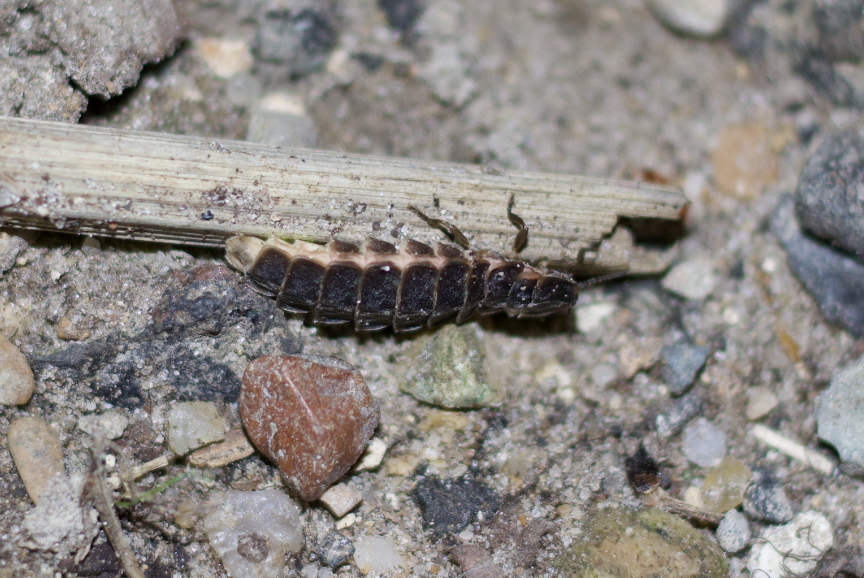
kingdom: Animalia
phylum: Arthropoda
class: Insecta
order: Coleoptera
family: Lampyridae
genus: Lampyris
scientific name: Lampyris noctiluca
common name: Glow-worm
